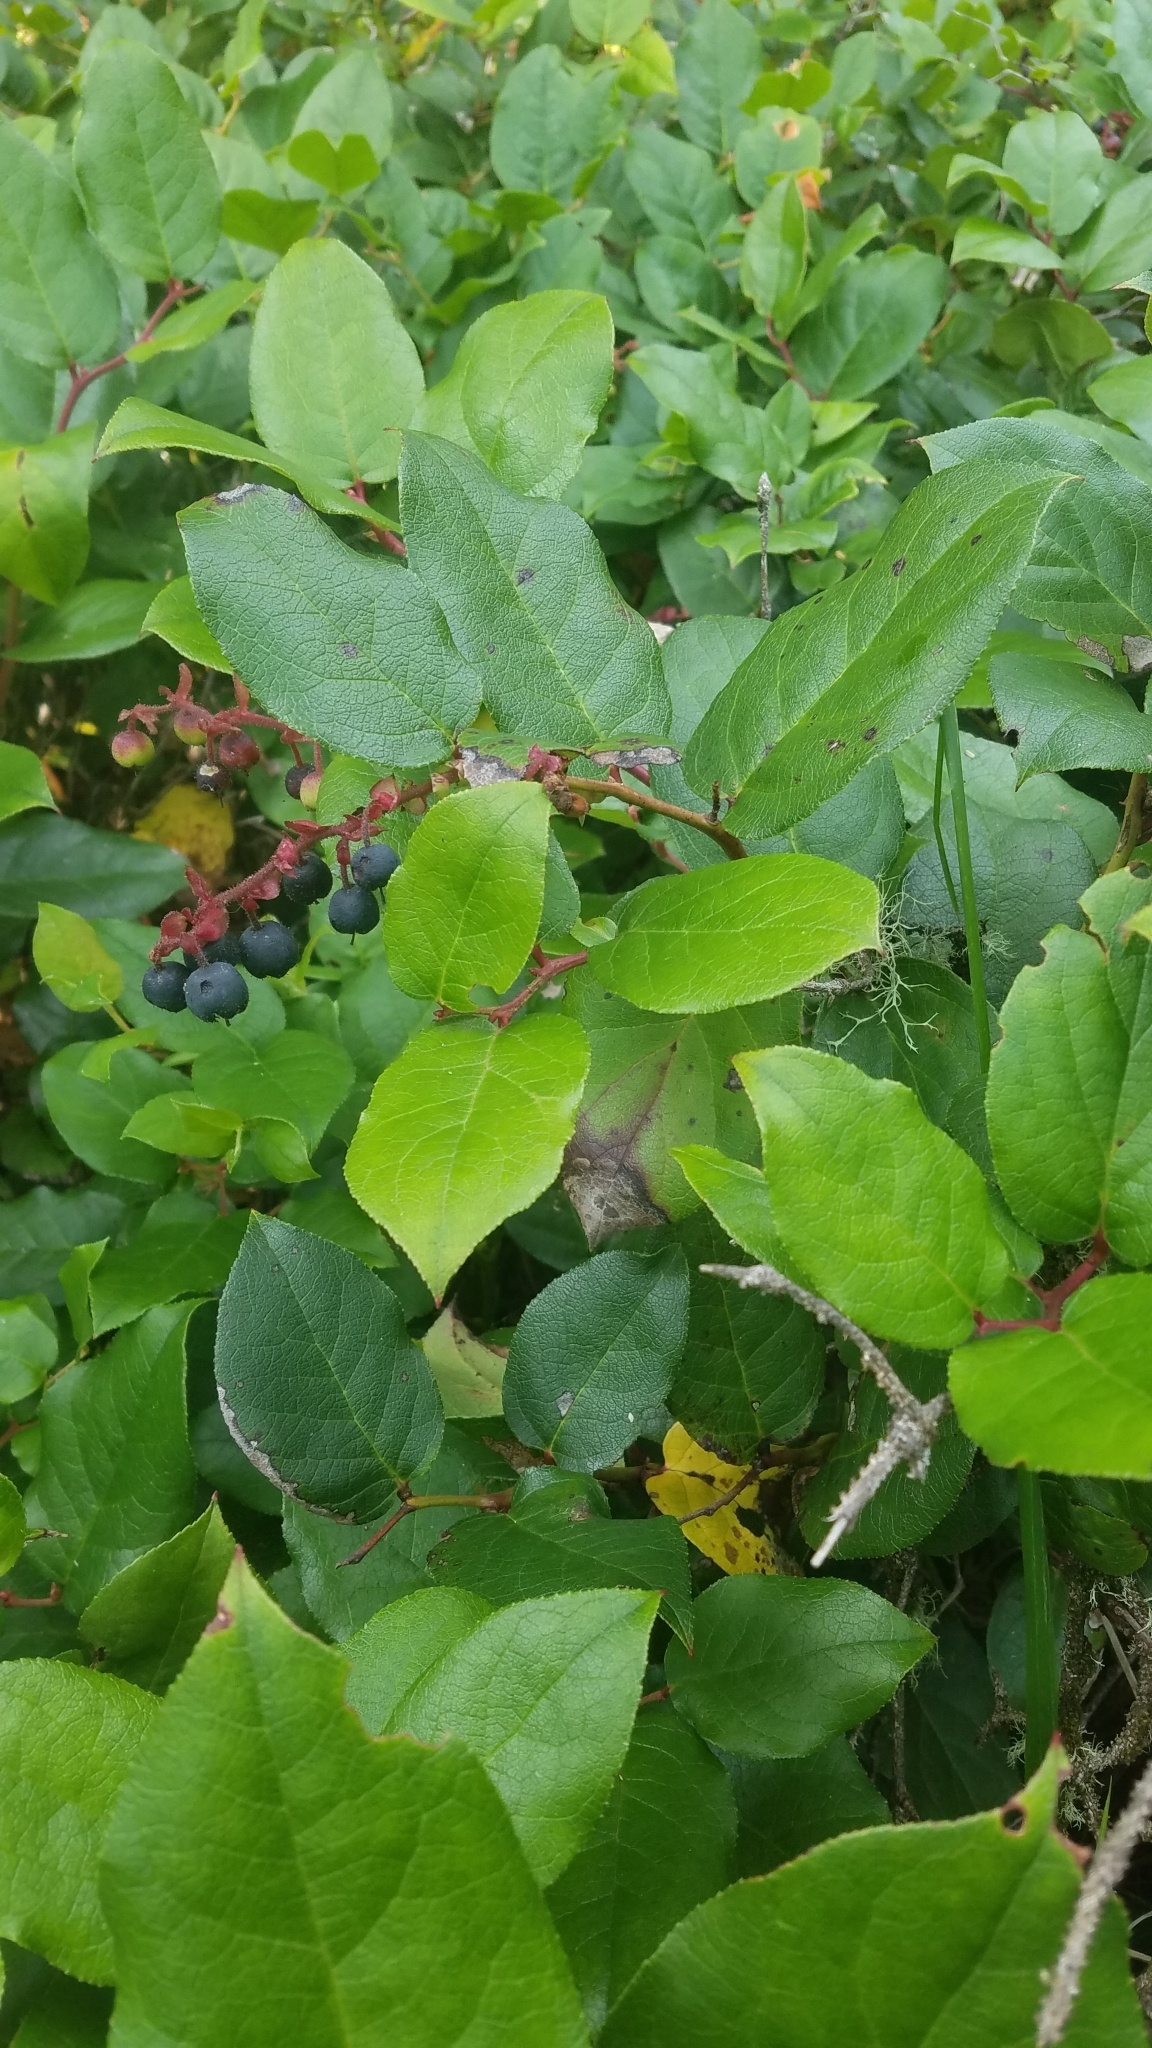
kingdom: Plantae
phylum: Tracheophyta
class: Magnoliopsida
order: Ericales
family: Ericaceae
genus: Gaultheria
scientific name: Gaultheria shallon
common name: Shallon
